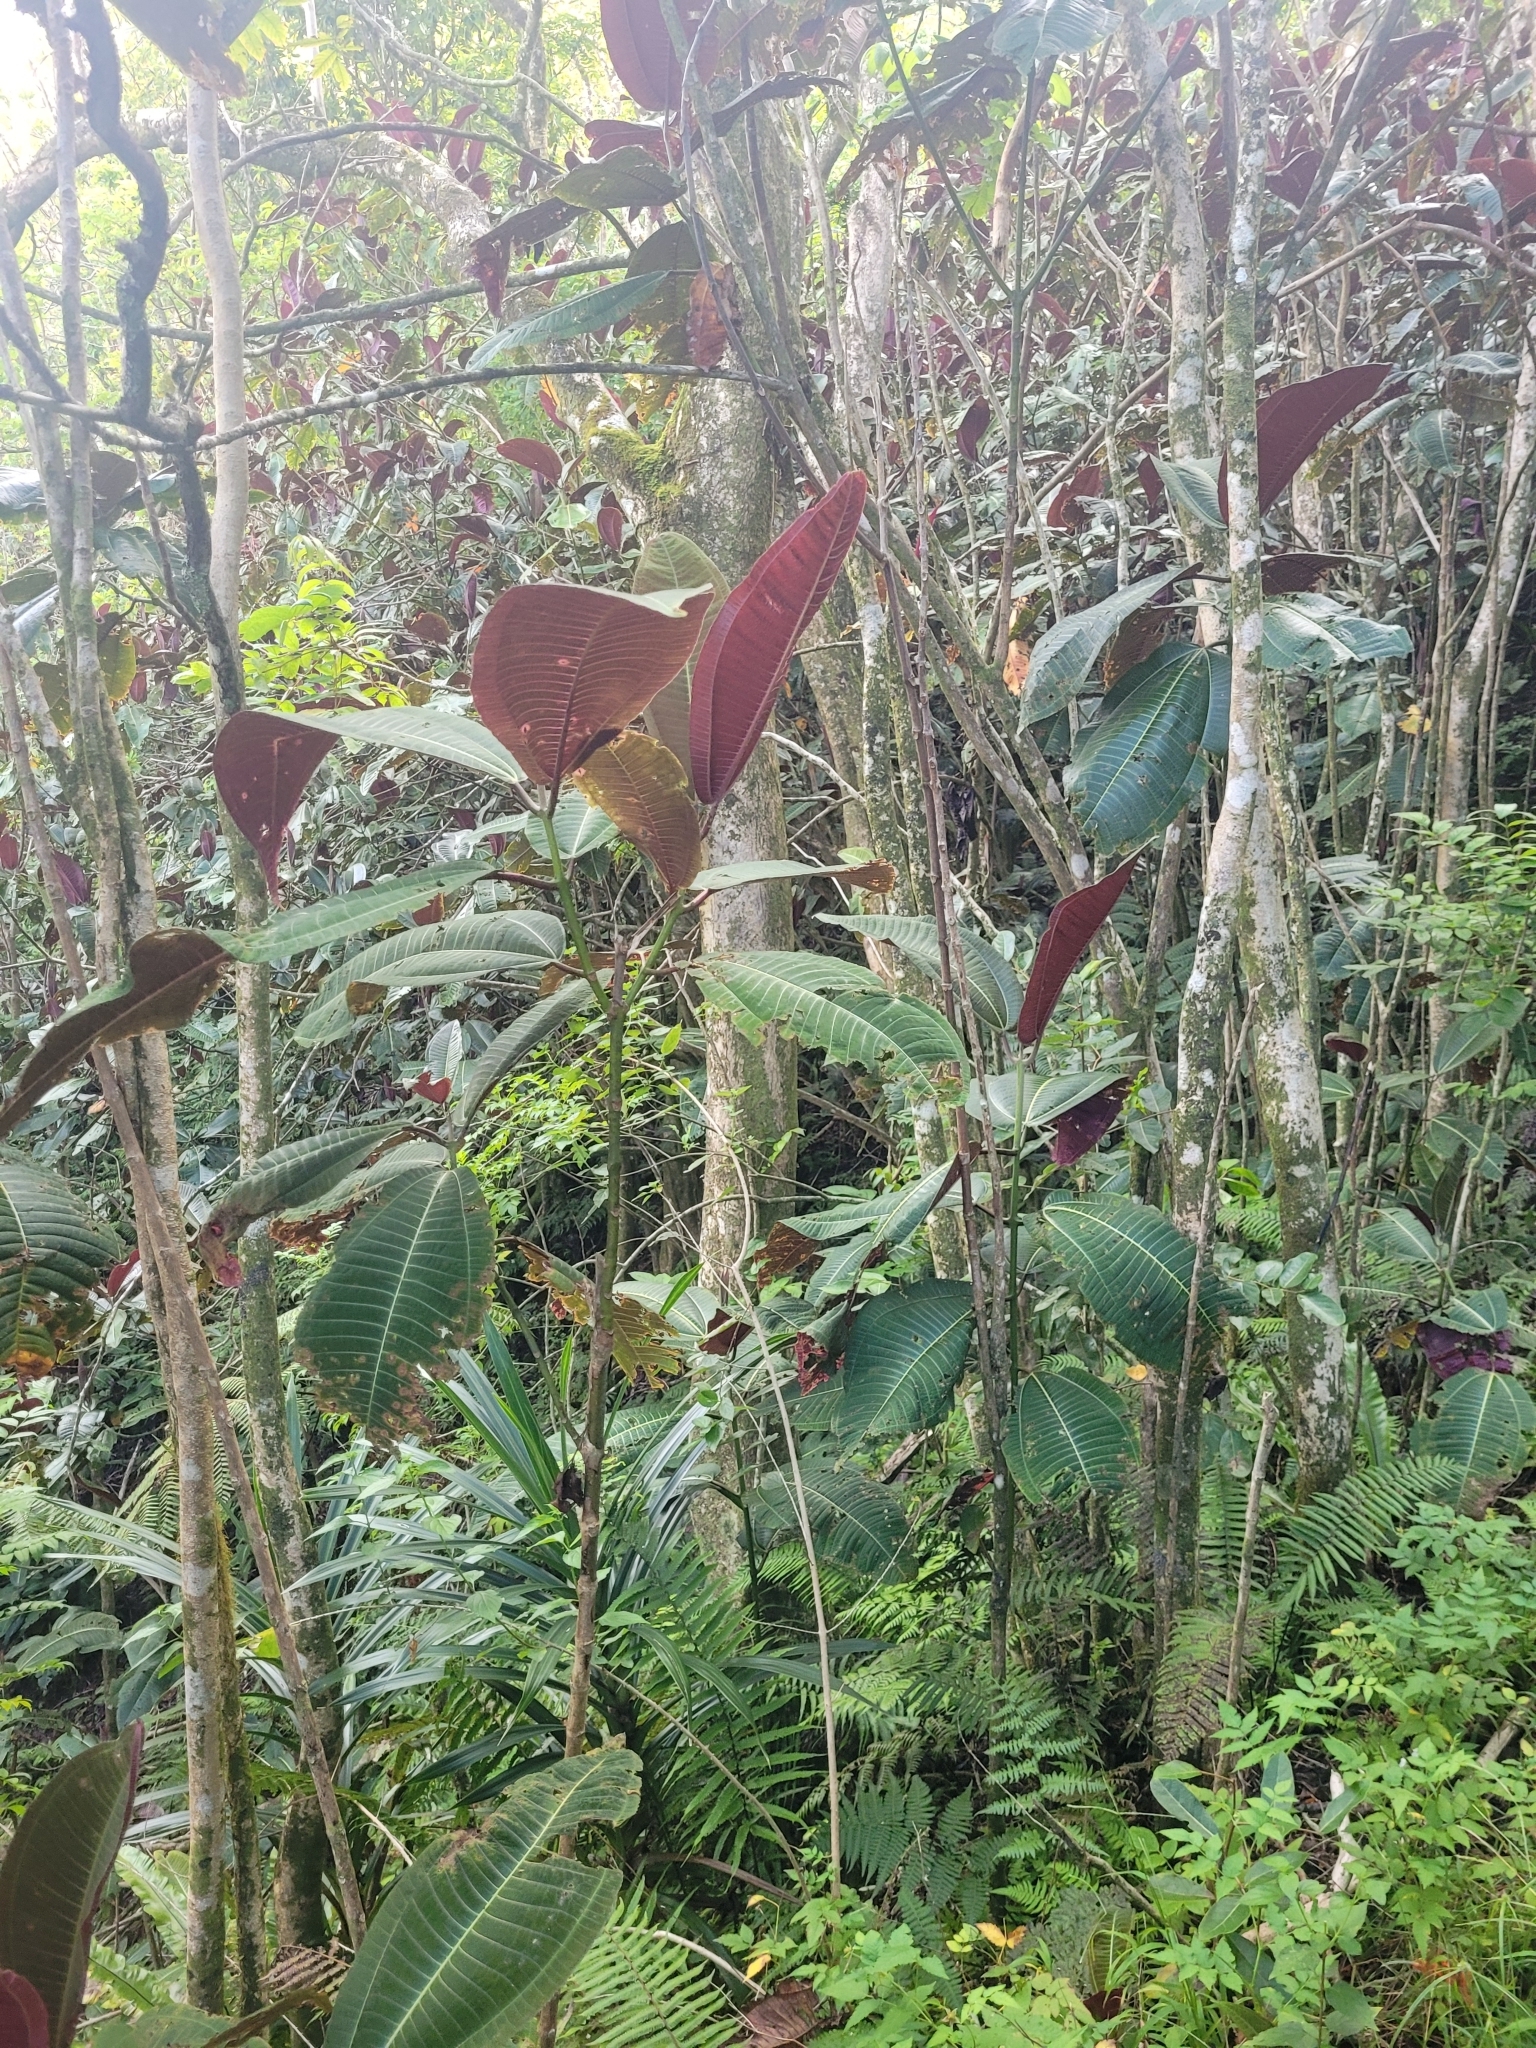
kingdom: Plantae
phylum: Tracheophyta
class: Magnoliopsida
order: Myrtales
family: Melastomataceae
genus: Miconia
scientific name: Miconia calvescens
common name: Purple plague
